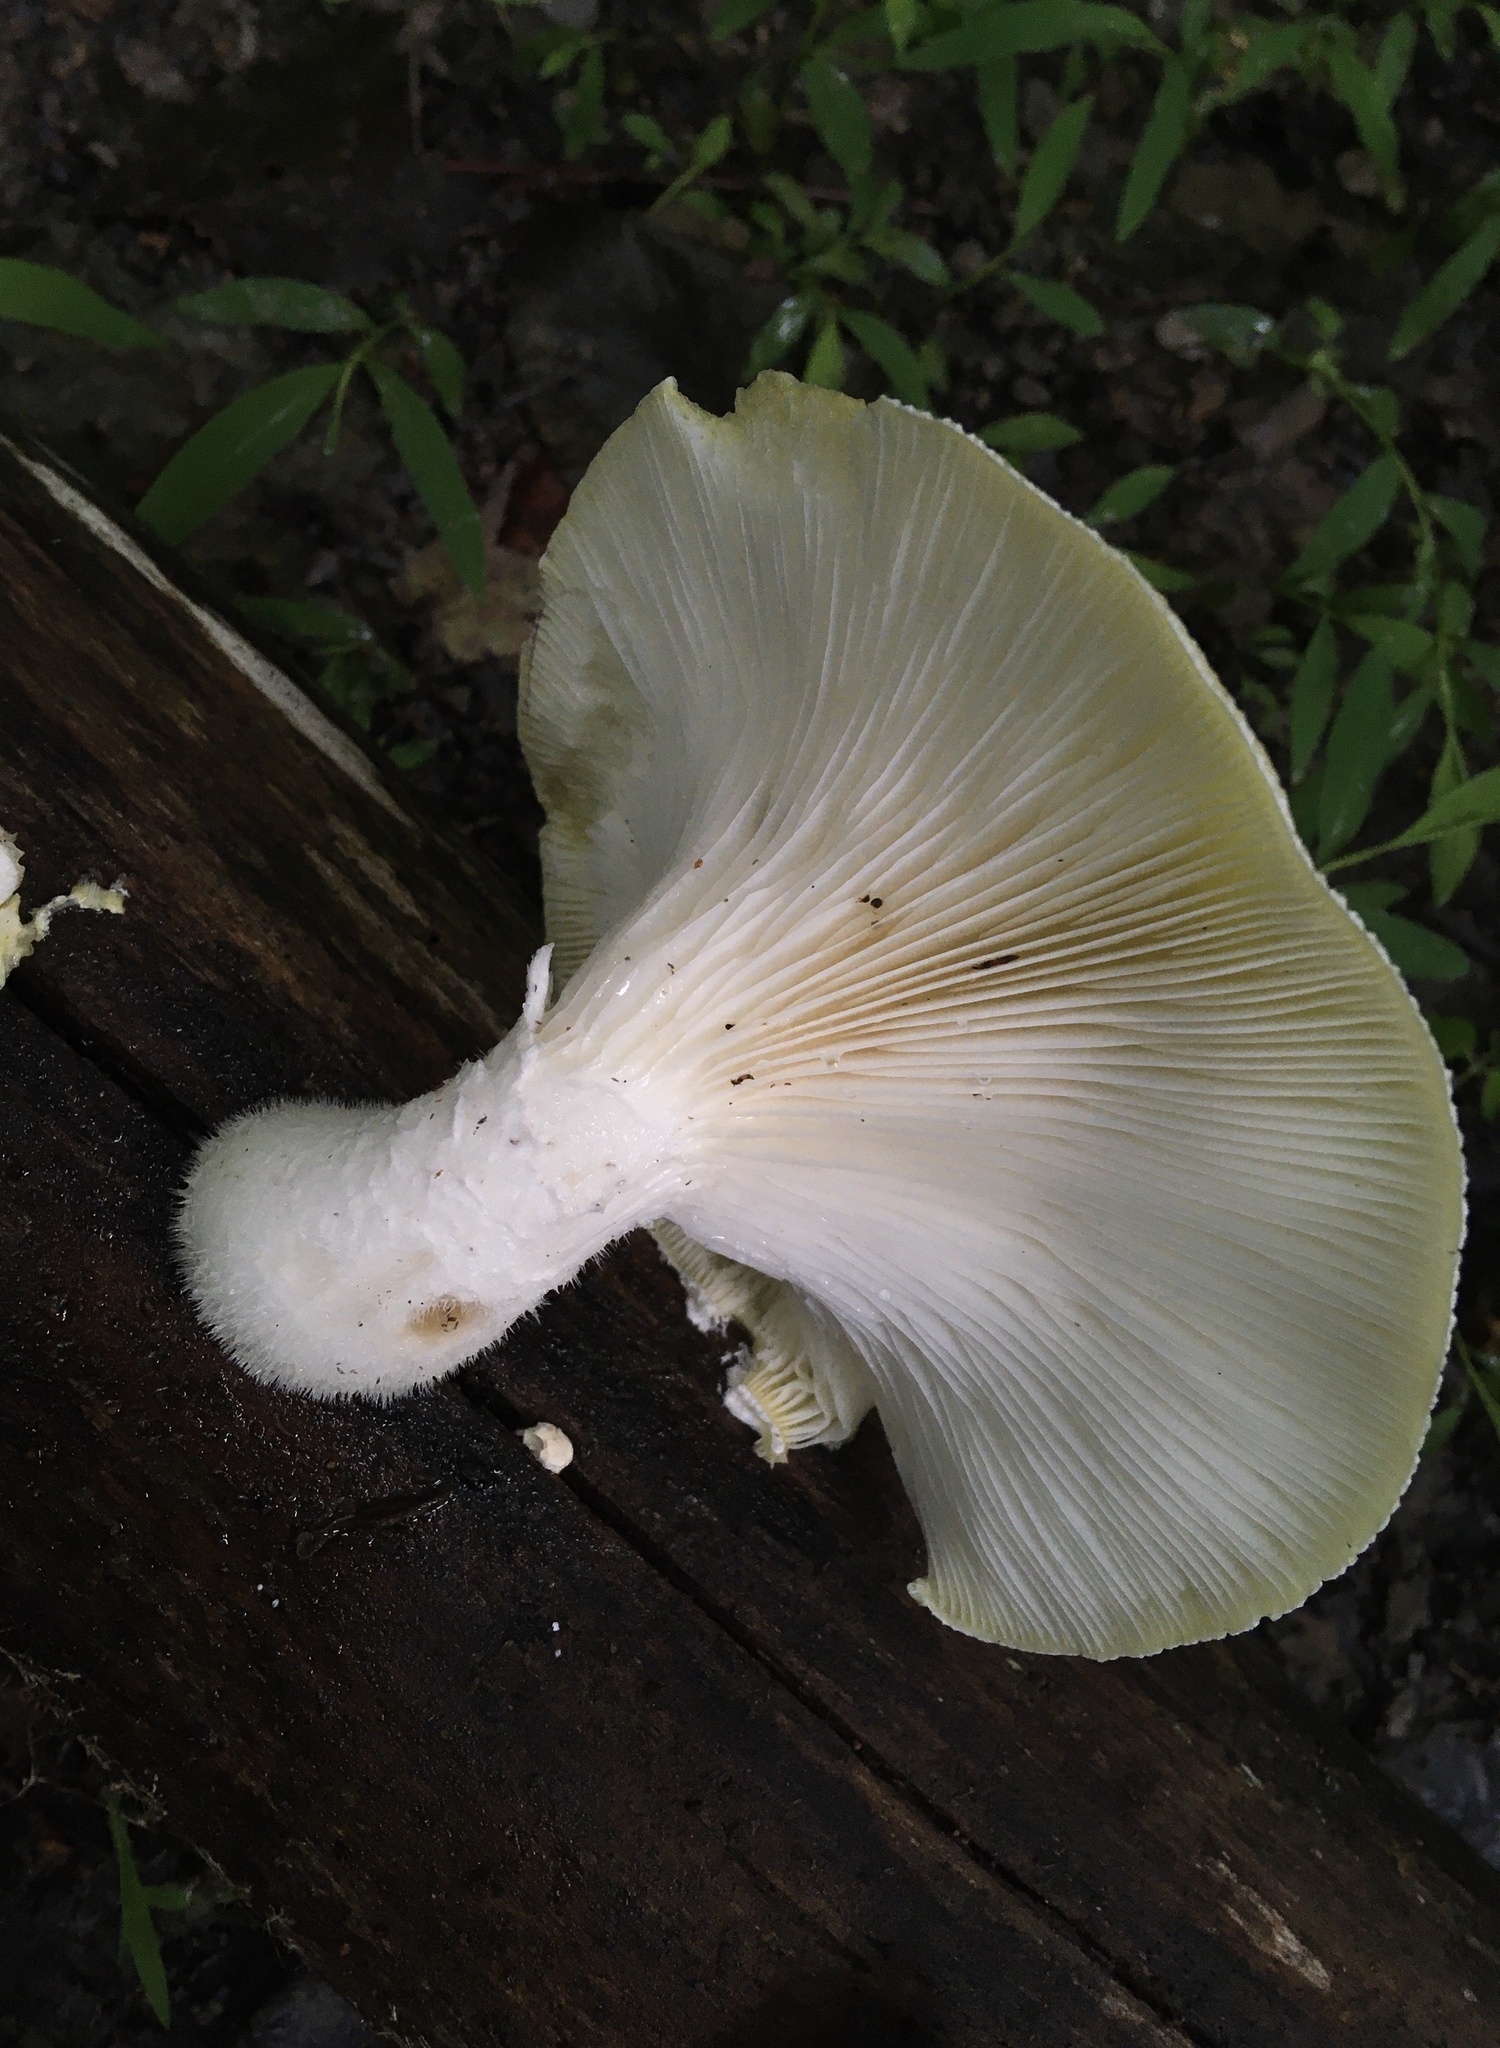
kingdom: Fungi
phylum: Basidiomycota
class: Agaricomycetes
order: Polyporales
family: Polyporaceae
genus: Lentinus
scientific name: Lentinus levis
